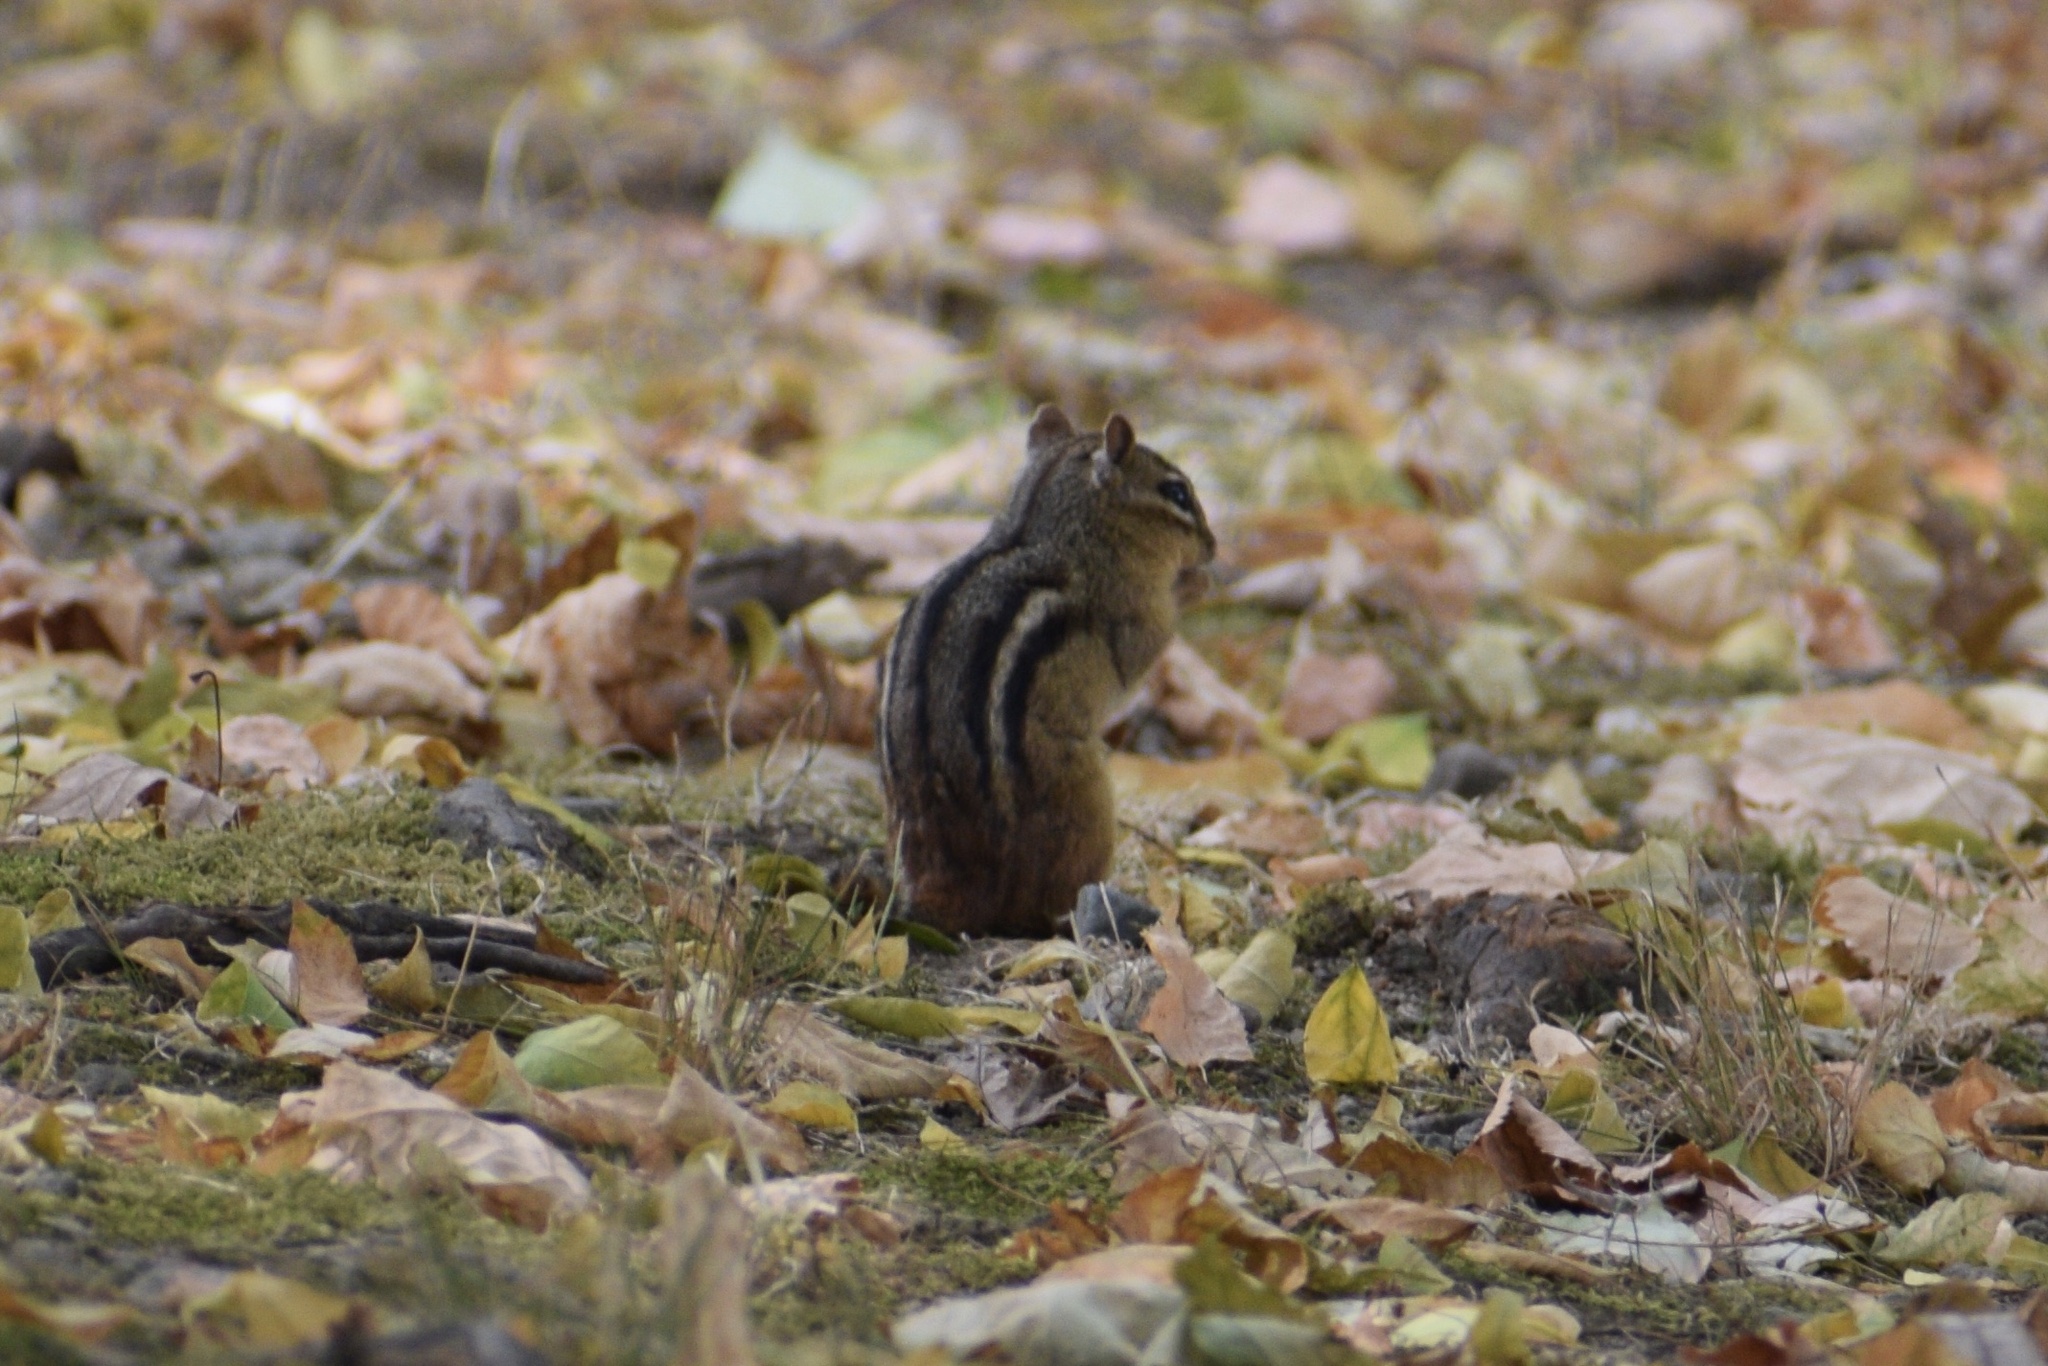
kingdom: Animalia
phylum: Chordata
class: Mammalia
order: Rodentia
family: Sciuridae
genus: Tamias
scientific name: Tamias striatus
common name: Eastern chipmunk
